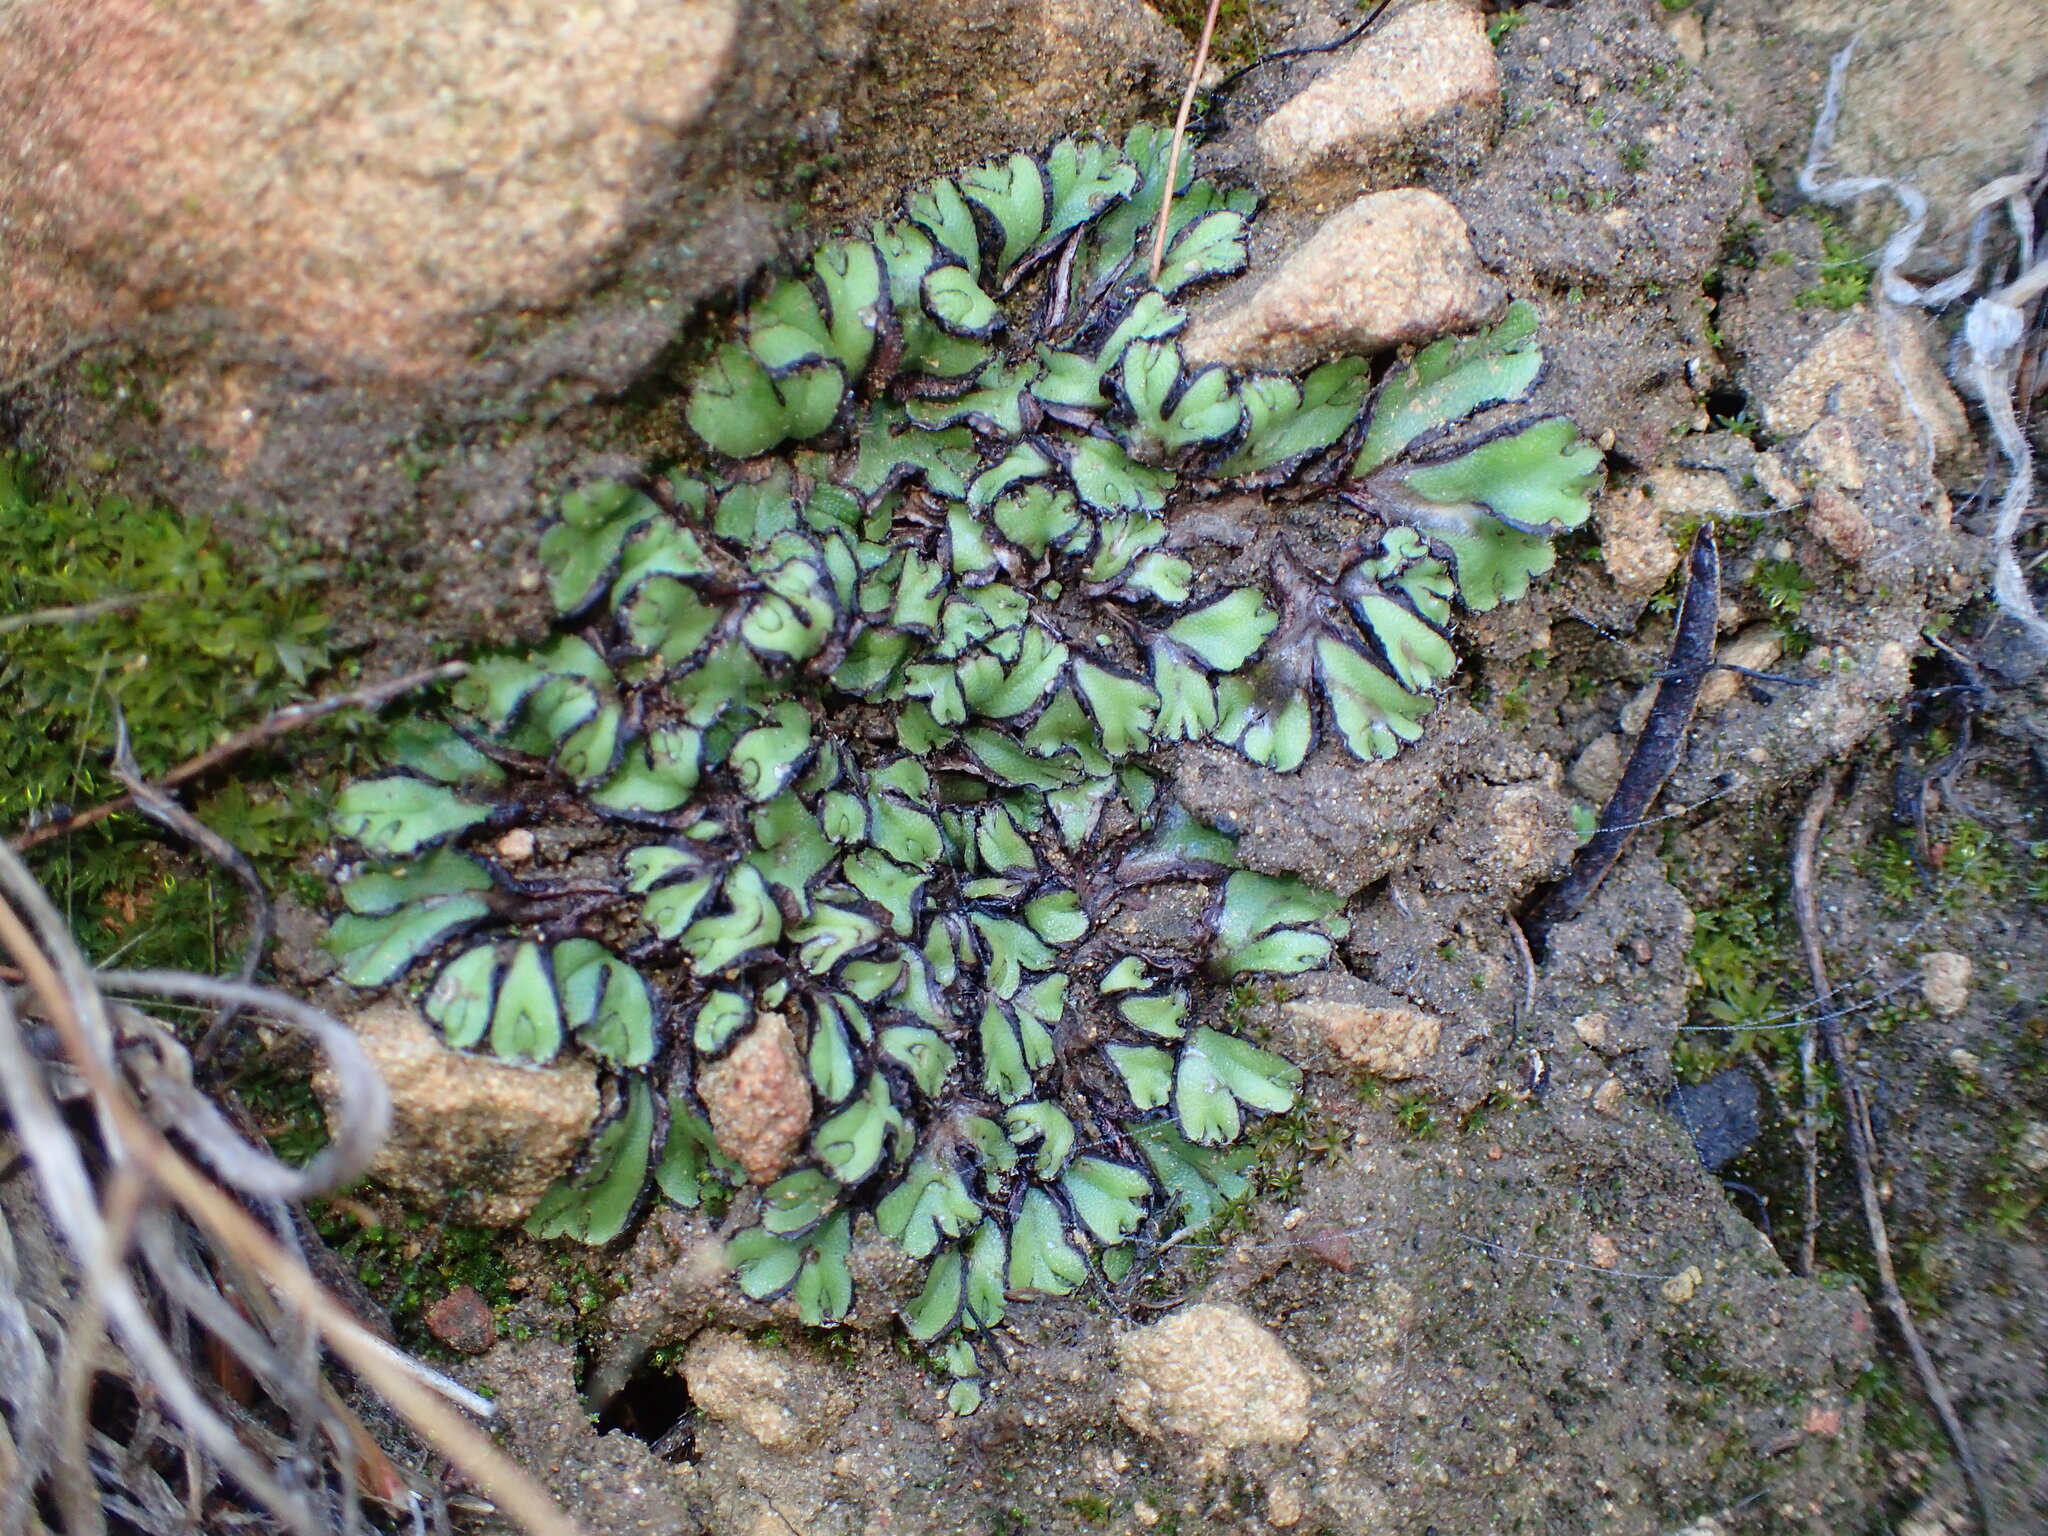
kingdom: Plantae
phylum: Marchantiophyta
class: Marchantiopsida
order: Marchantiales
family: Aytoniaceae
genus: Asterella
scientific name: Asterella palmeri
